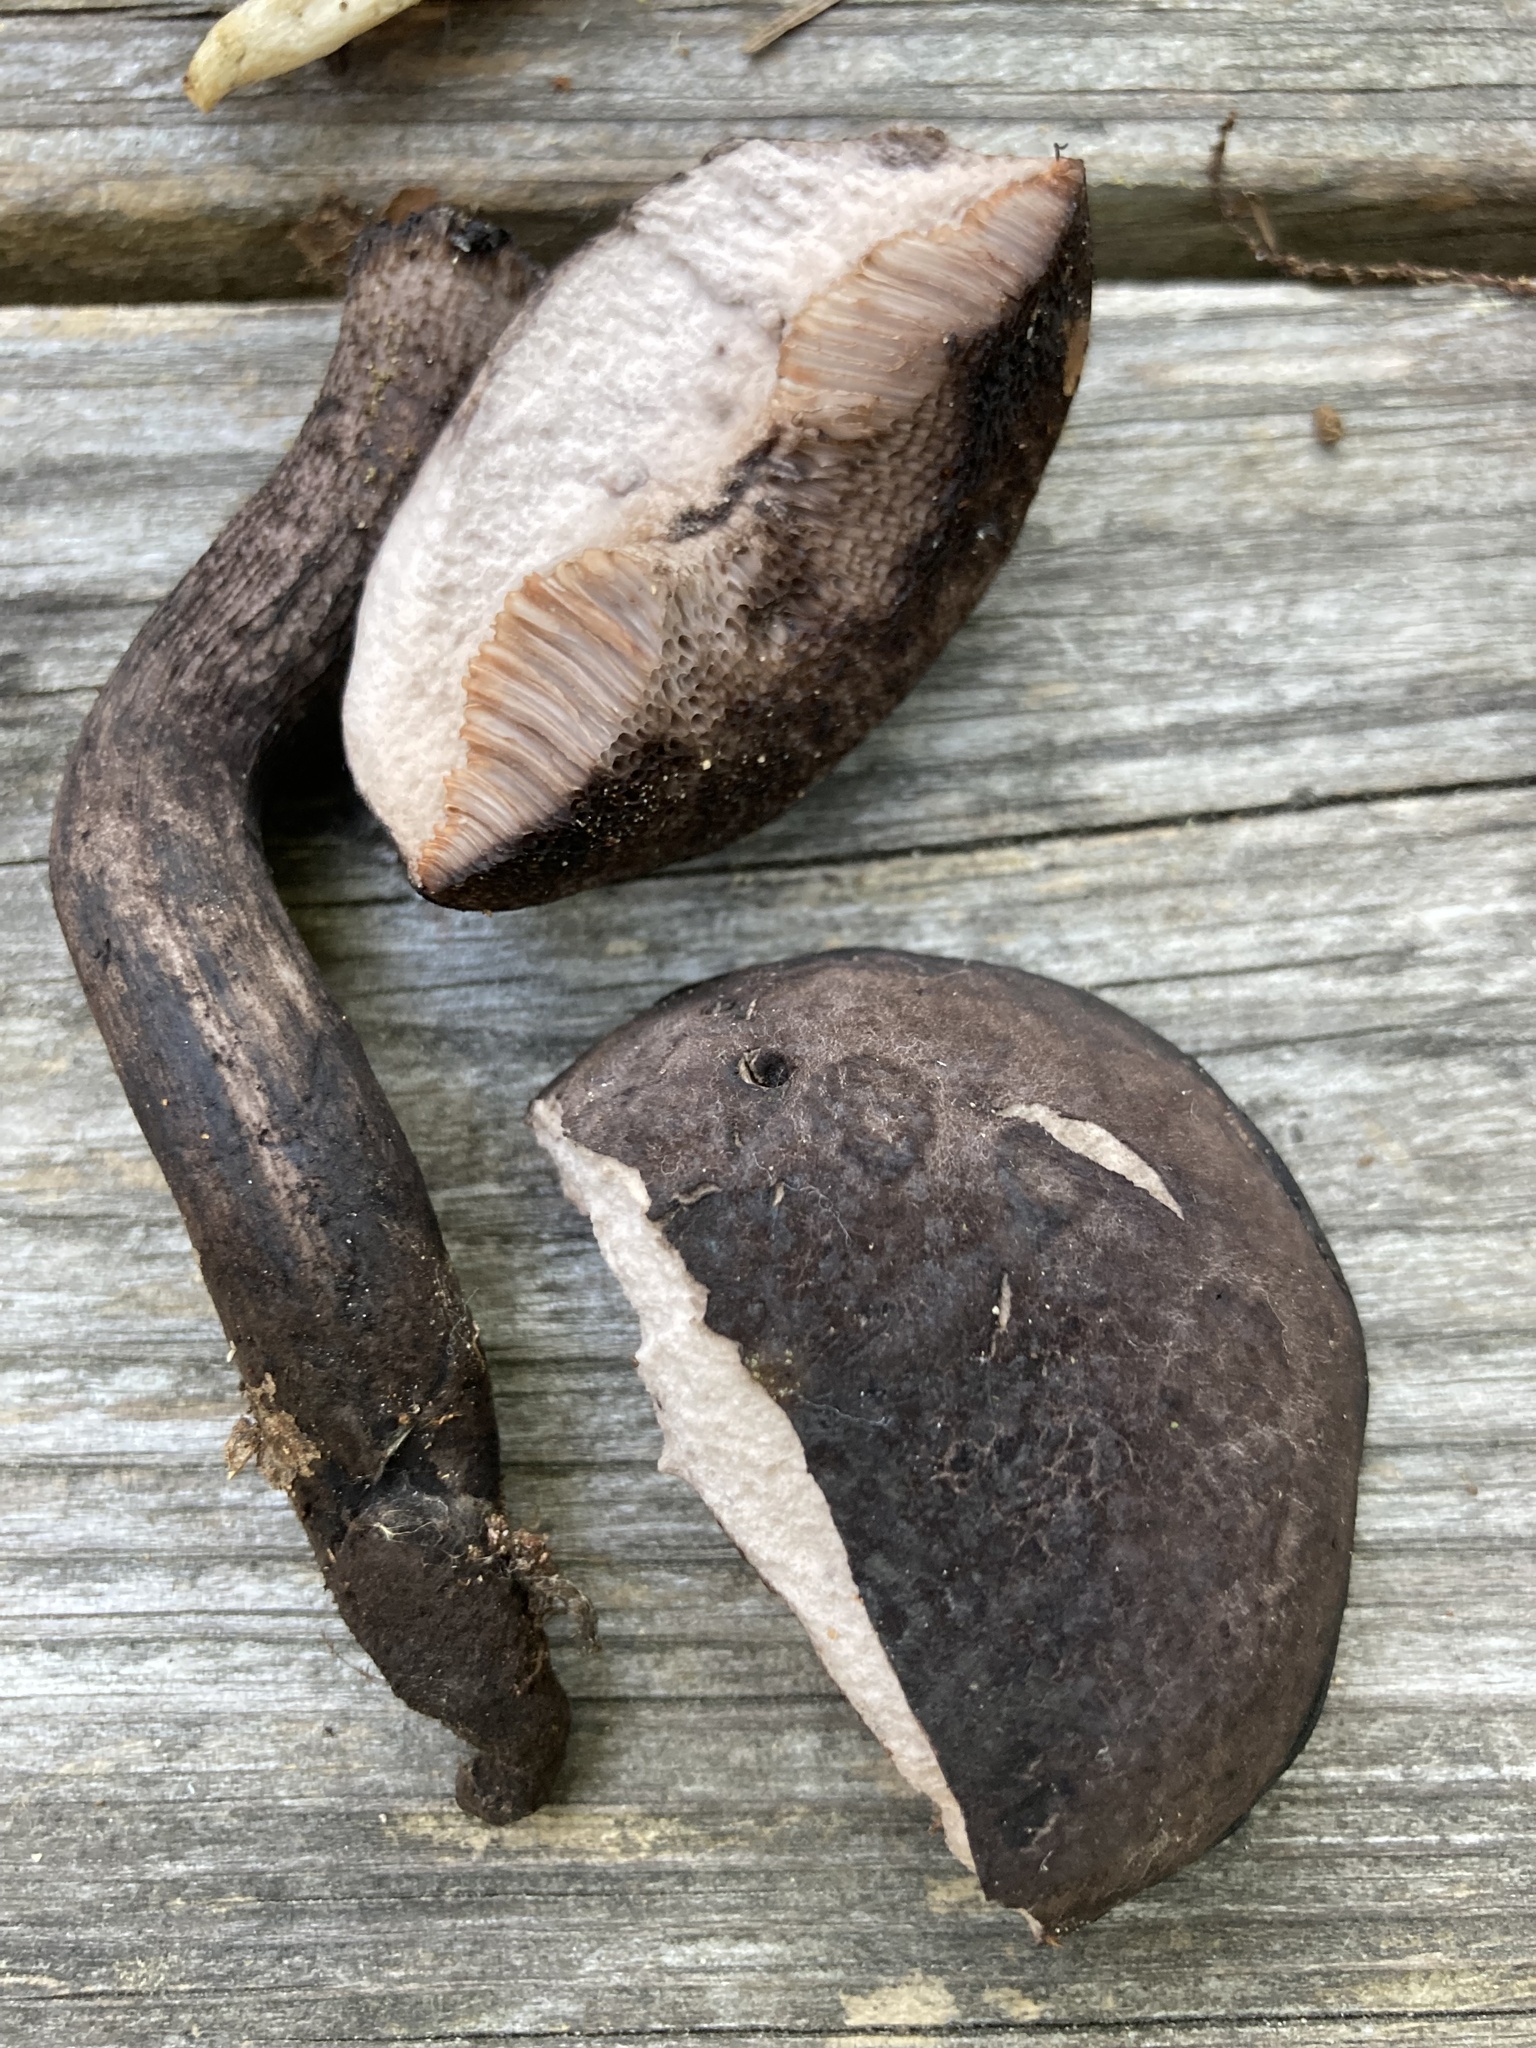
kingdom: Fungi
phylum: Basidiomycota
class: Agaricomycetes
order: Boletales
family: Boletaceae
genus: Tylopilus
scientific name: Tylopilus alboater
